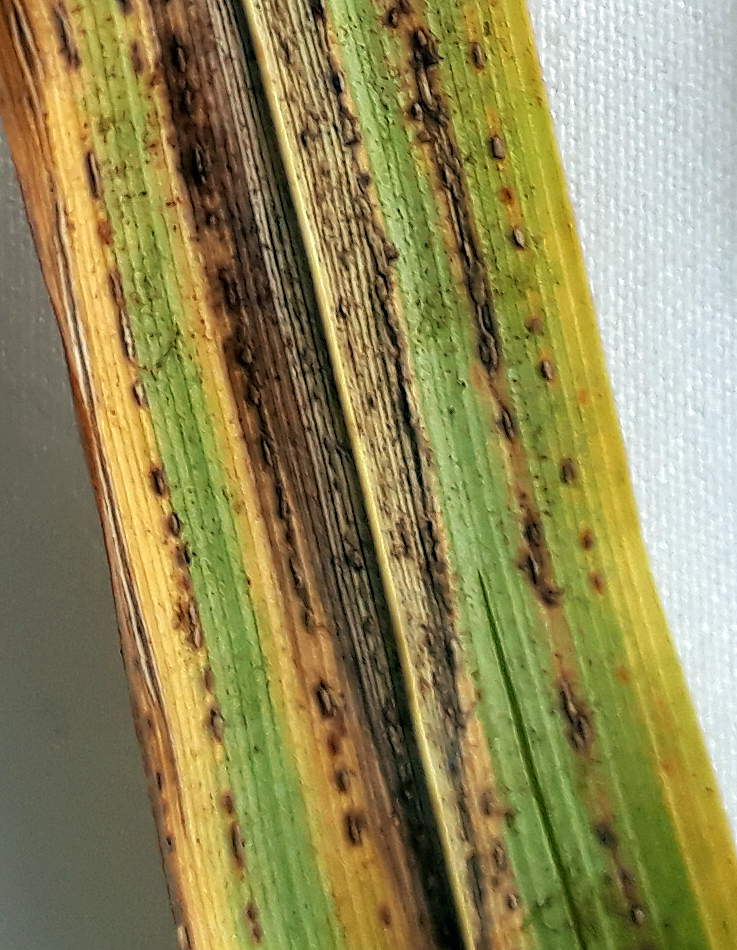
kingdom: Fungi
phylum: Basidiomycota
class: Pucciniomycetes
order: Pucciniales
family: Pucciniaceae
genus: Puccinia
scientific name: Puccinia chathamica
